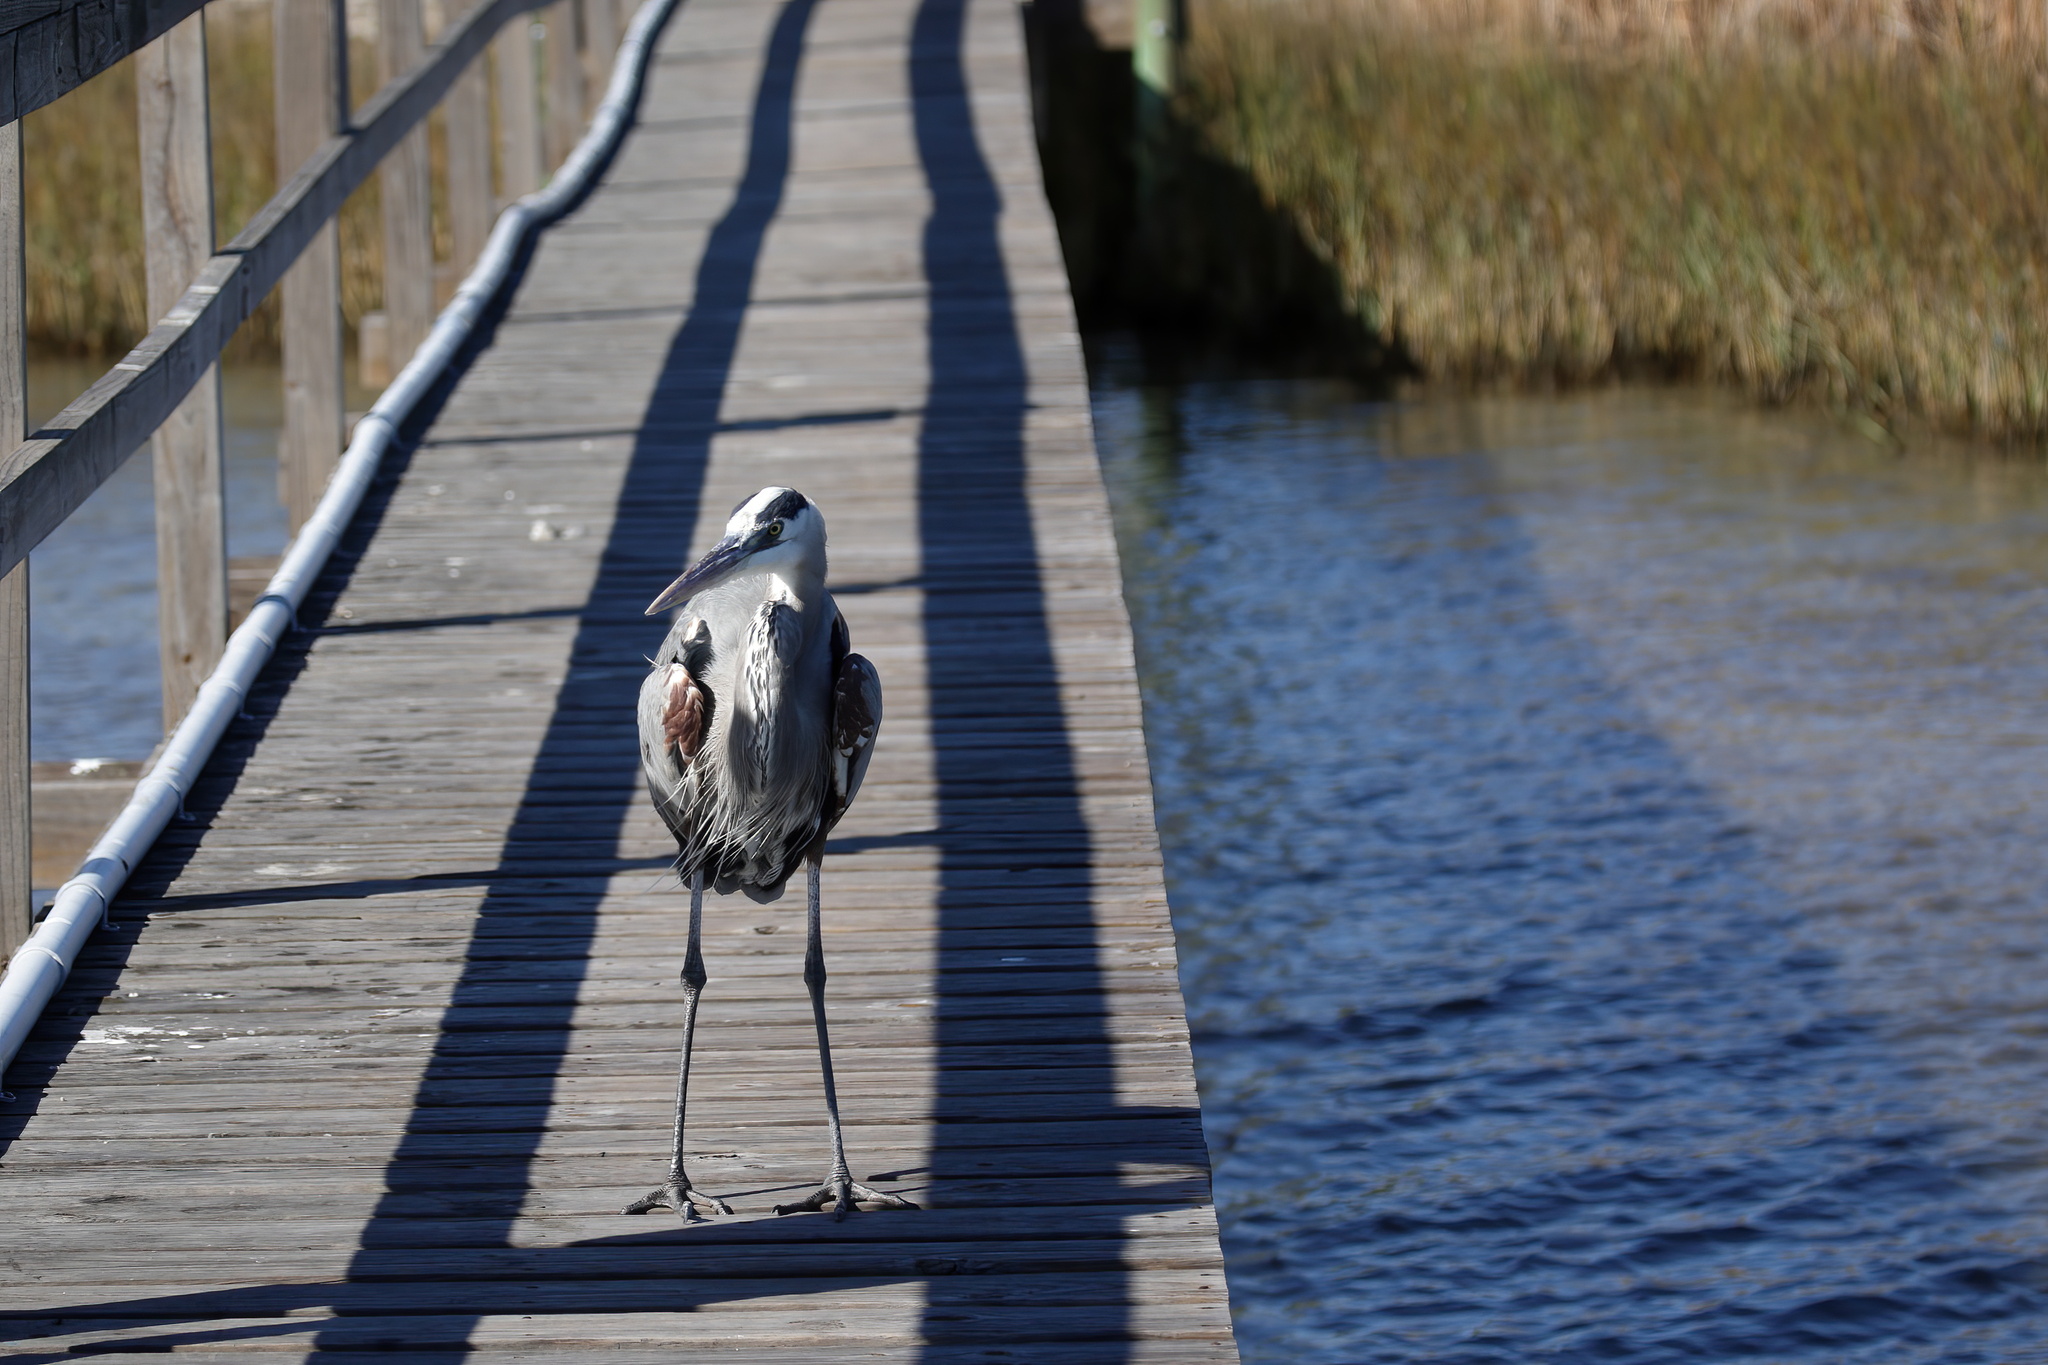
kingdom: Animalia
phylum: Chordata
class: Aves
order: Pelecaniformes
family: Ardeidae
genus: Ardea
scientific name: Ardea herodias
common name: Great blue heron
